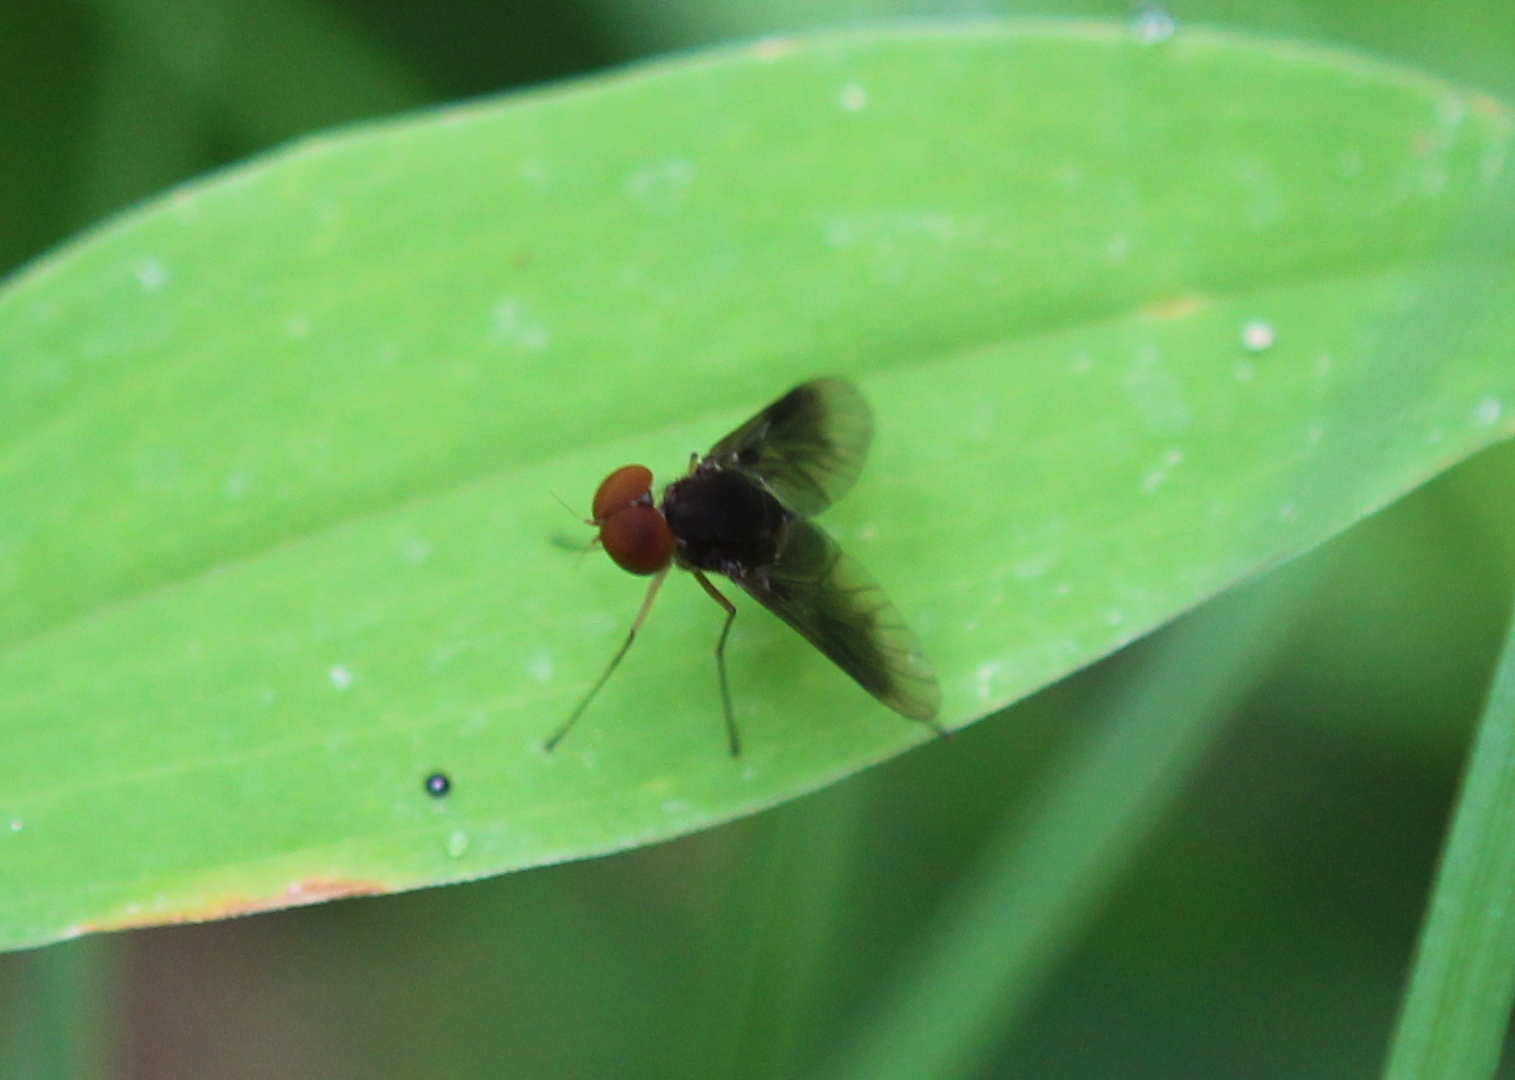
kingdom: Animalia
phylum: Arthropoda
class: Insecta
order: Diptera
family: Rhagionidae
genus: Chrysopilus
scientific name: Chrysopilus quadratus
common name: Quadrate snipe fly
